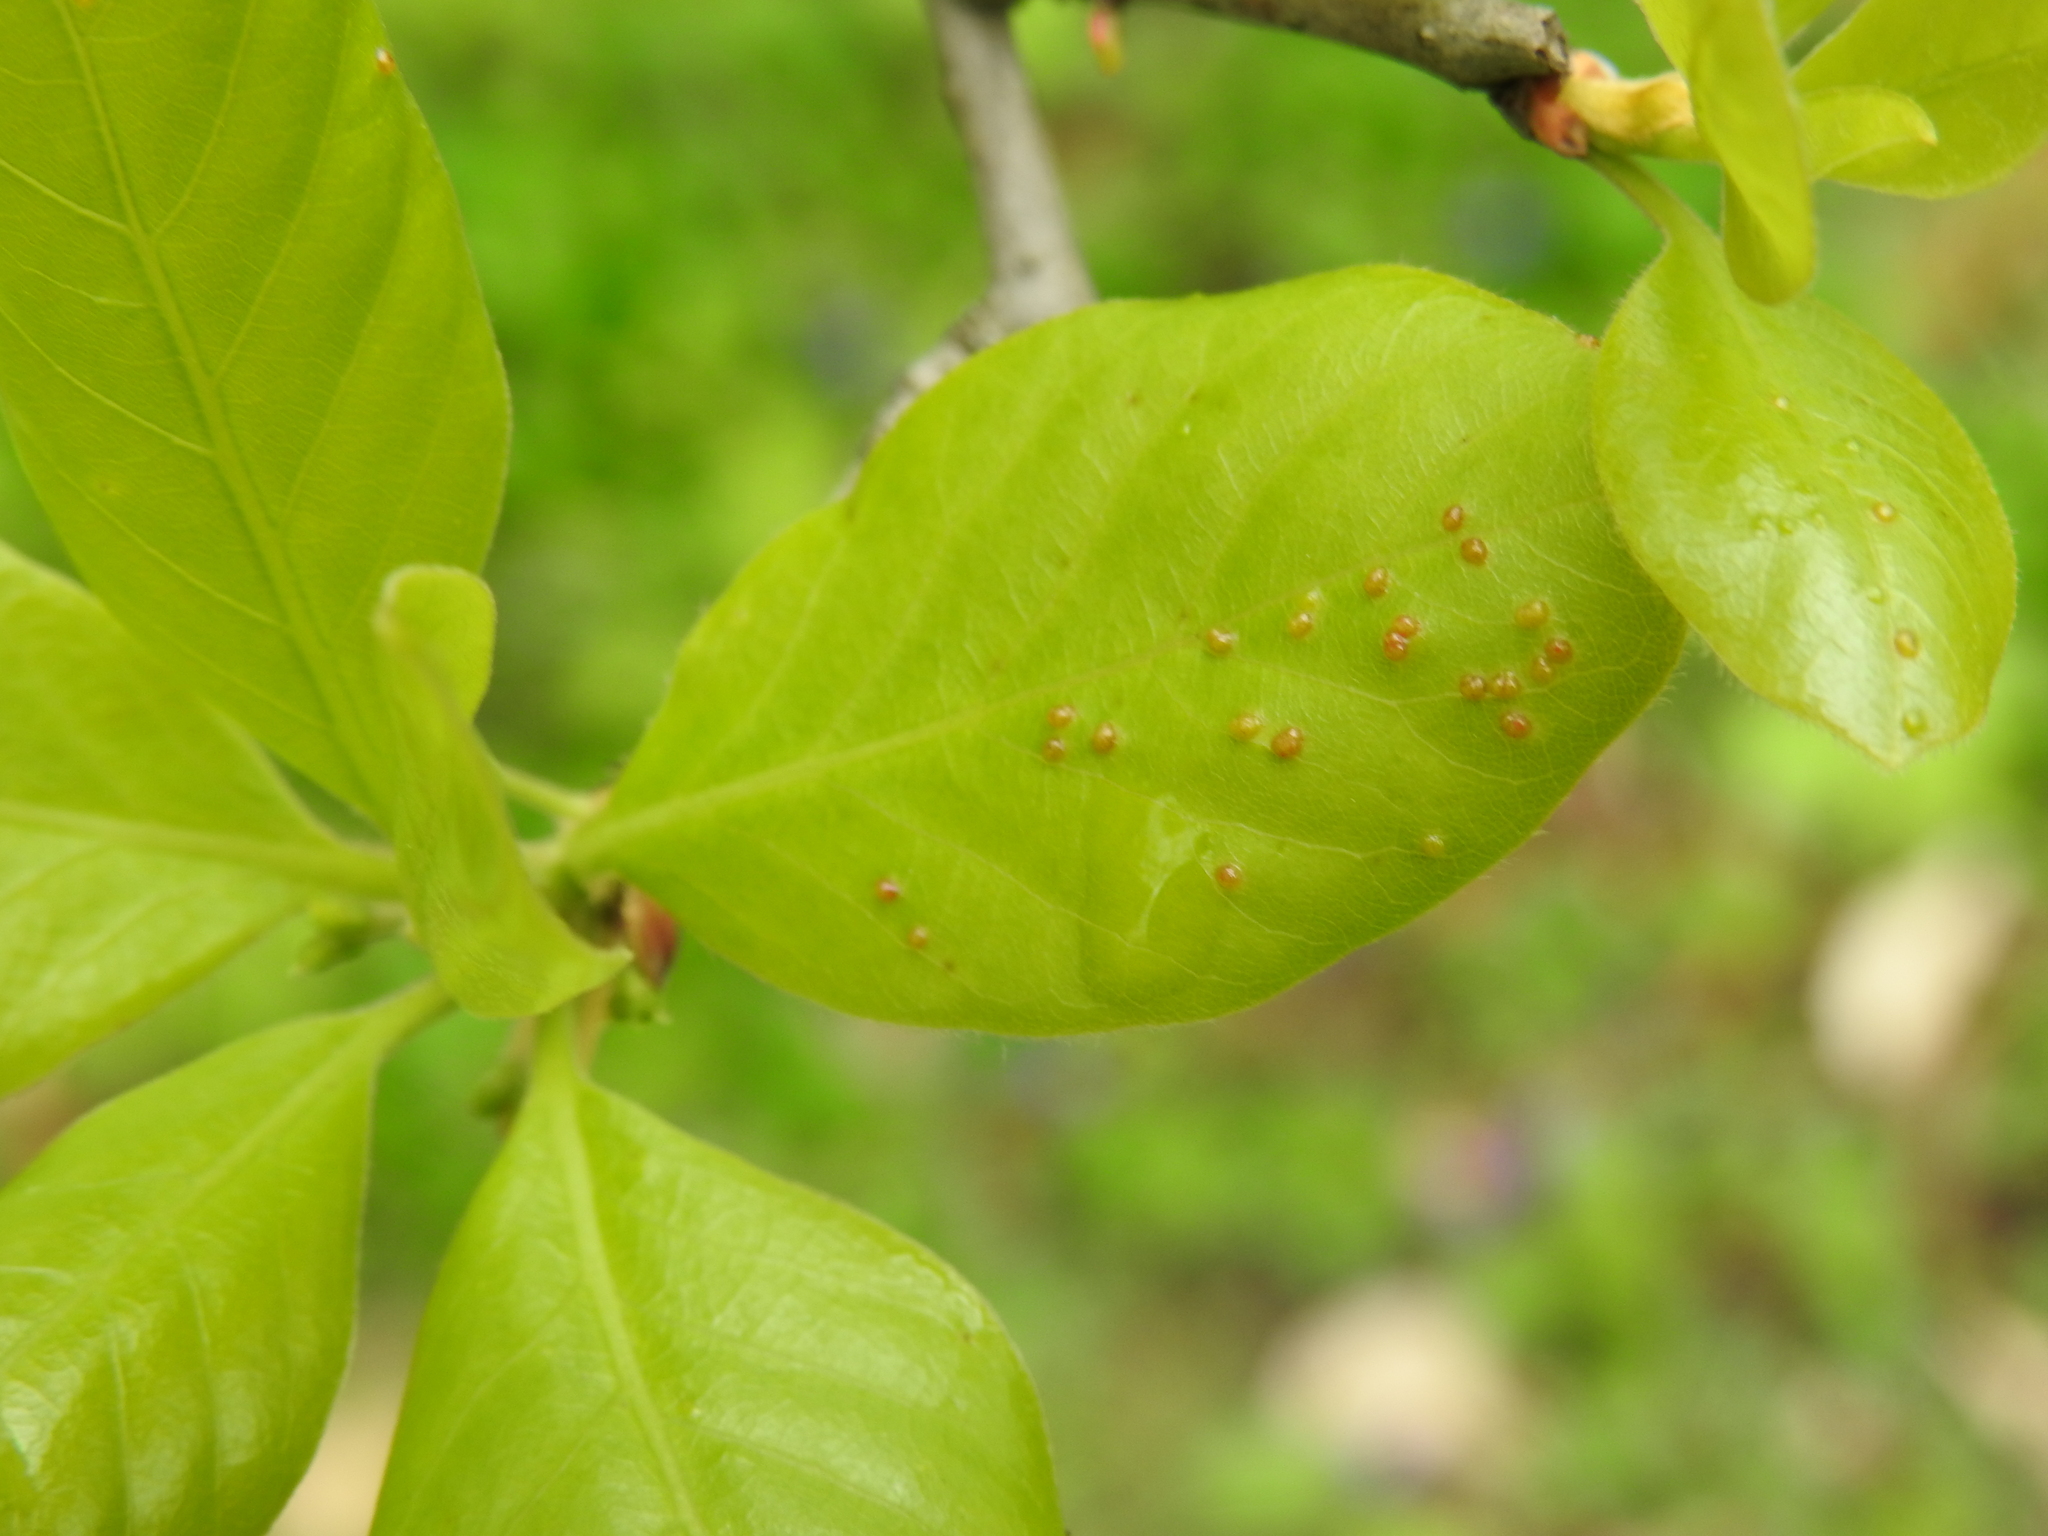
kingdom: Animalia
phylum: Arthropoda
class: Arachnida
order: Trombidiformes
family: Eriophyidae
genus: Aceria
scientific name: Aceria
